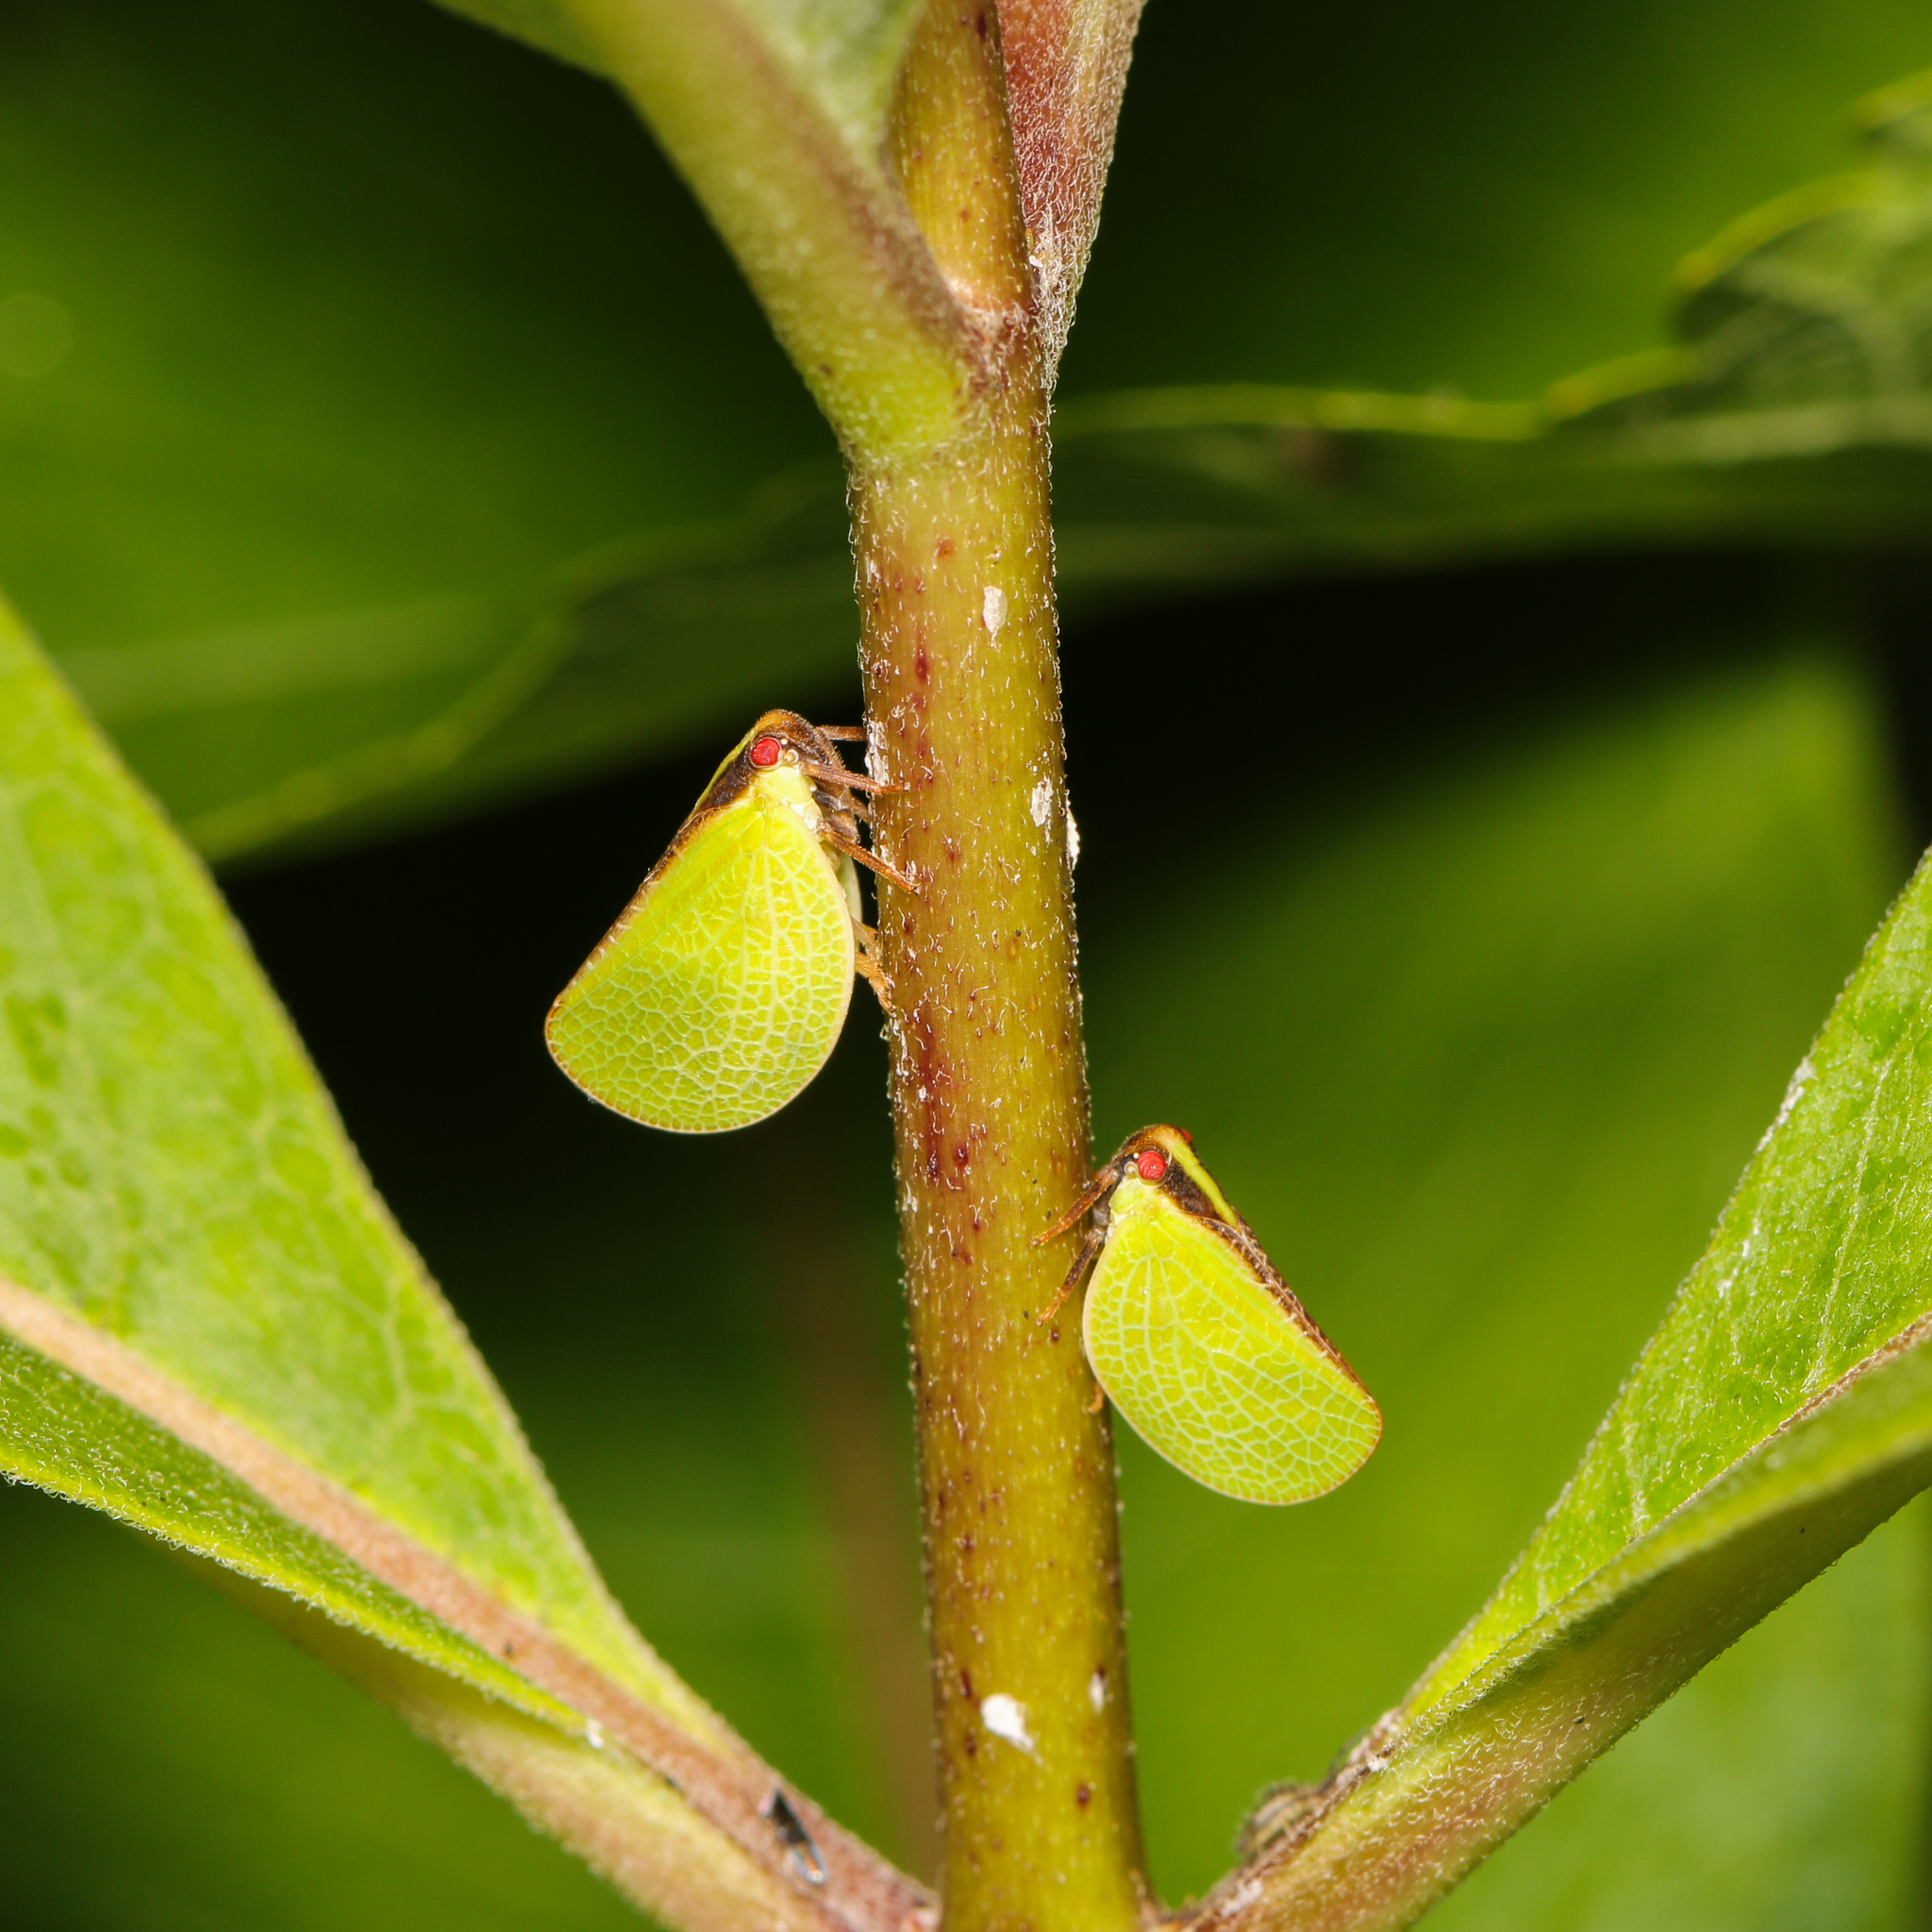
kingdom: Animalia
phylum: Arthropoda
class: Insecta
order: Hemiptera
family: Acanaloniidae
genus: Acanalonia
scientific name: Acanalonia bivittata
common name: Two-striped planthopper
